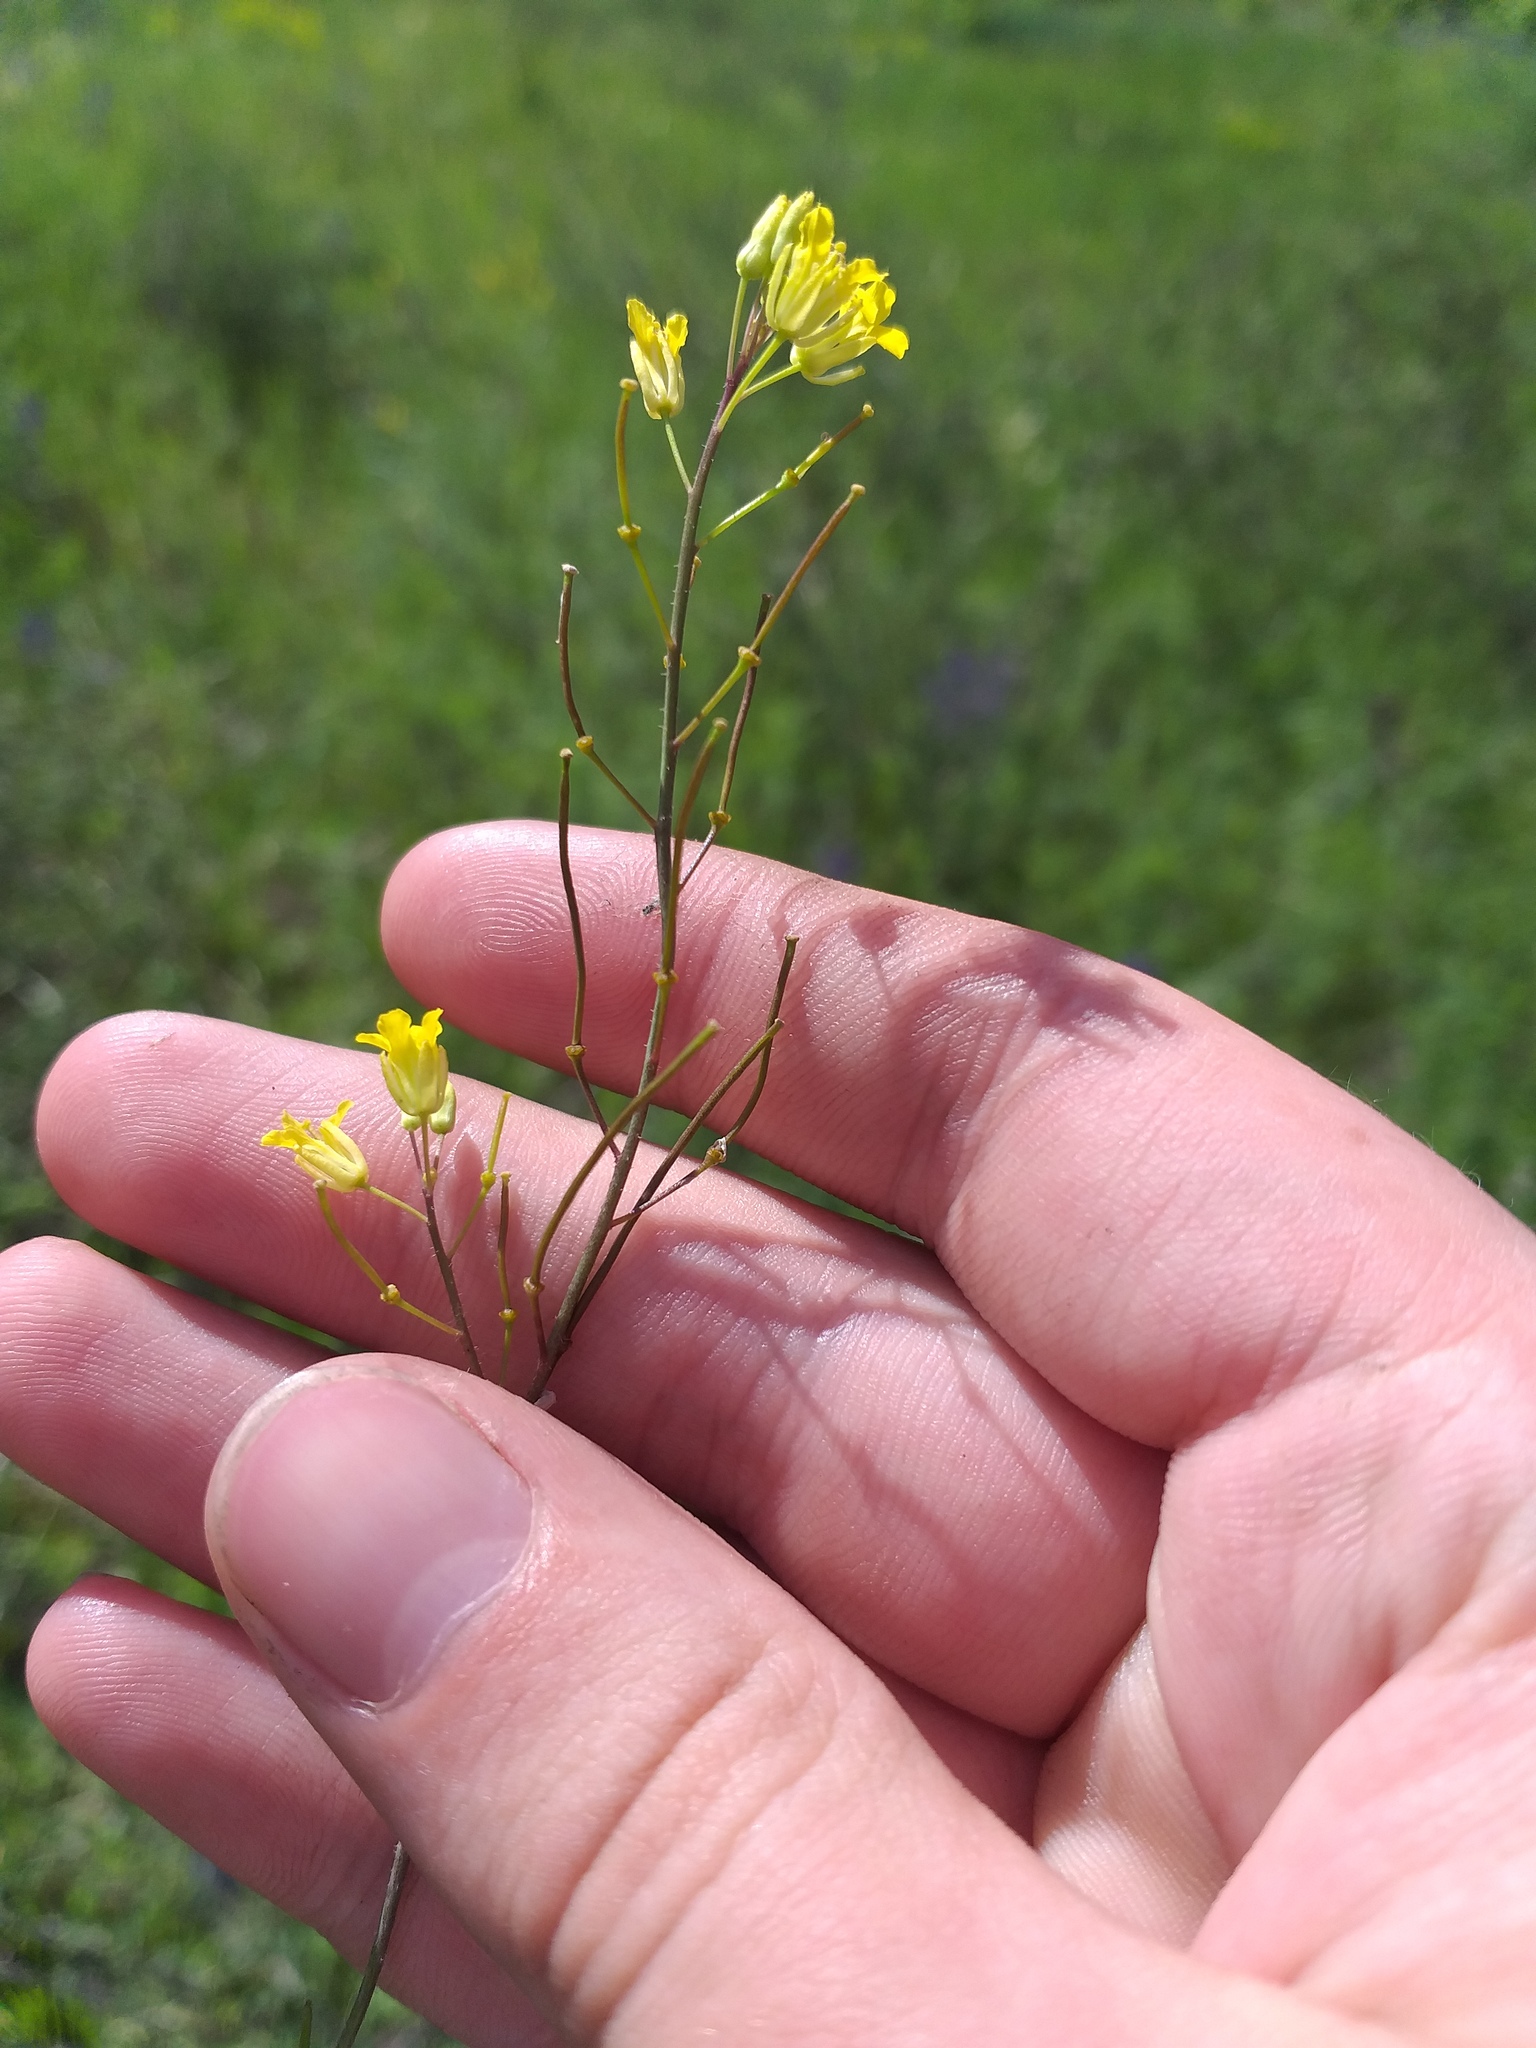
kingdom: Plantae
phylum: Tracheophyta
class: Magnoliopsida
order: Brassicales
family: Brassicaceae
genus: Sisymbrium
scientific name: Sisymbrium polymorphum
